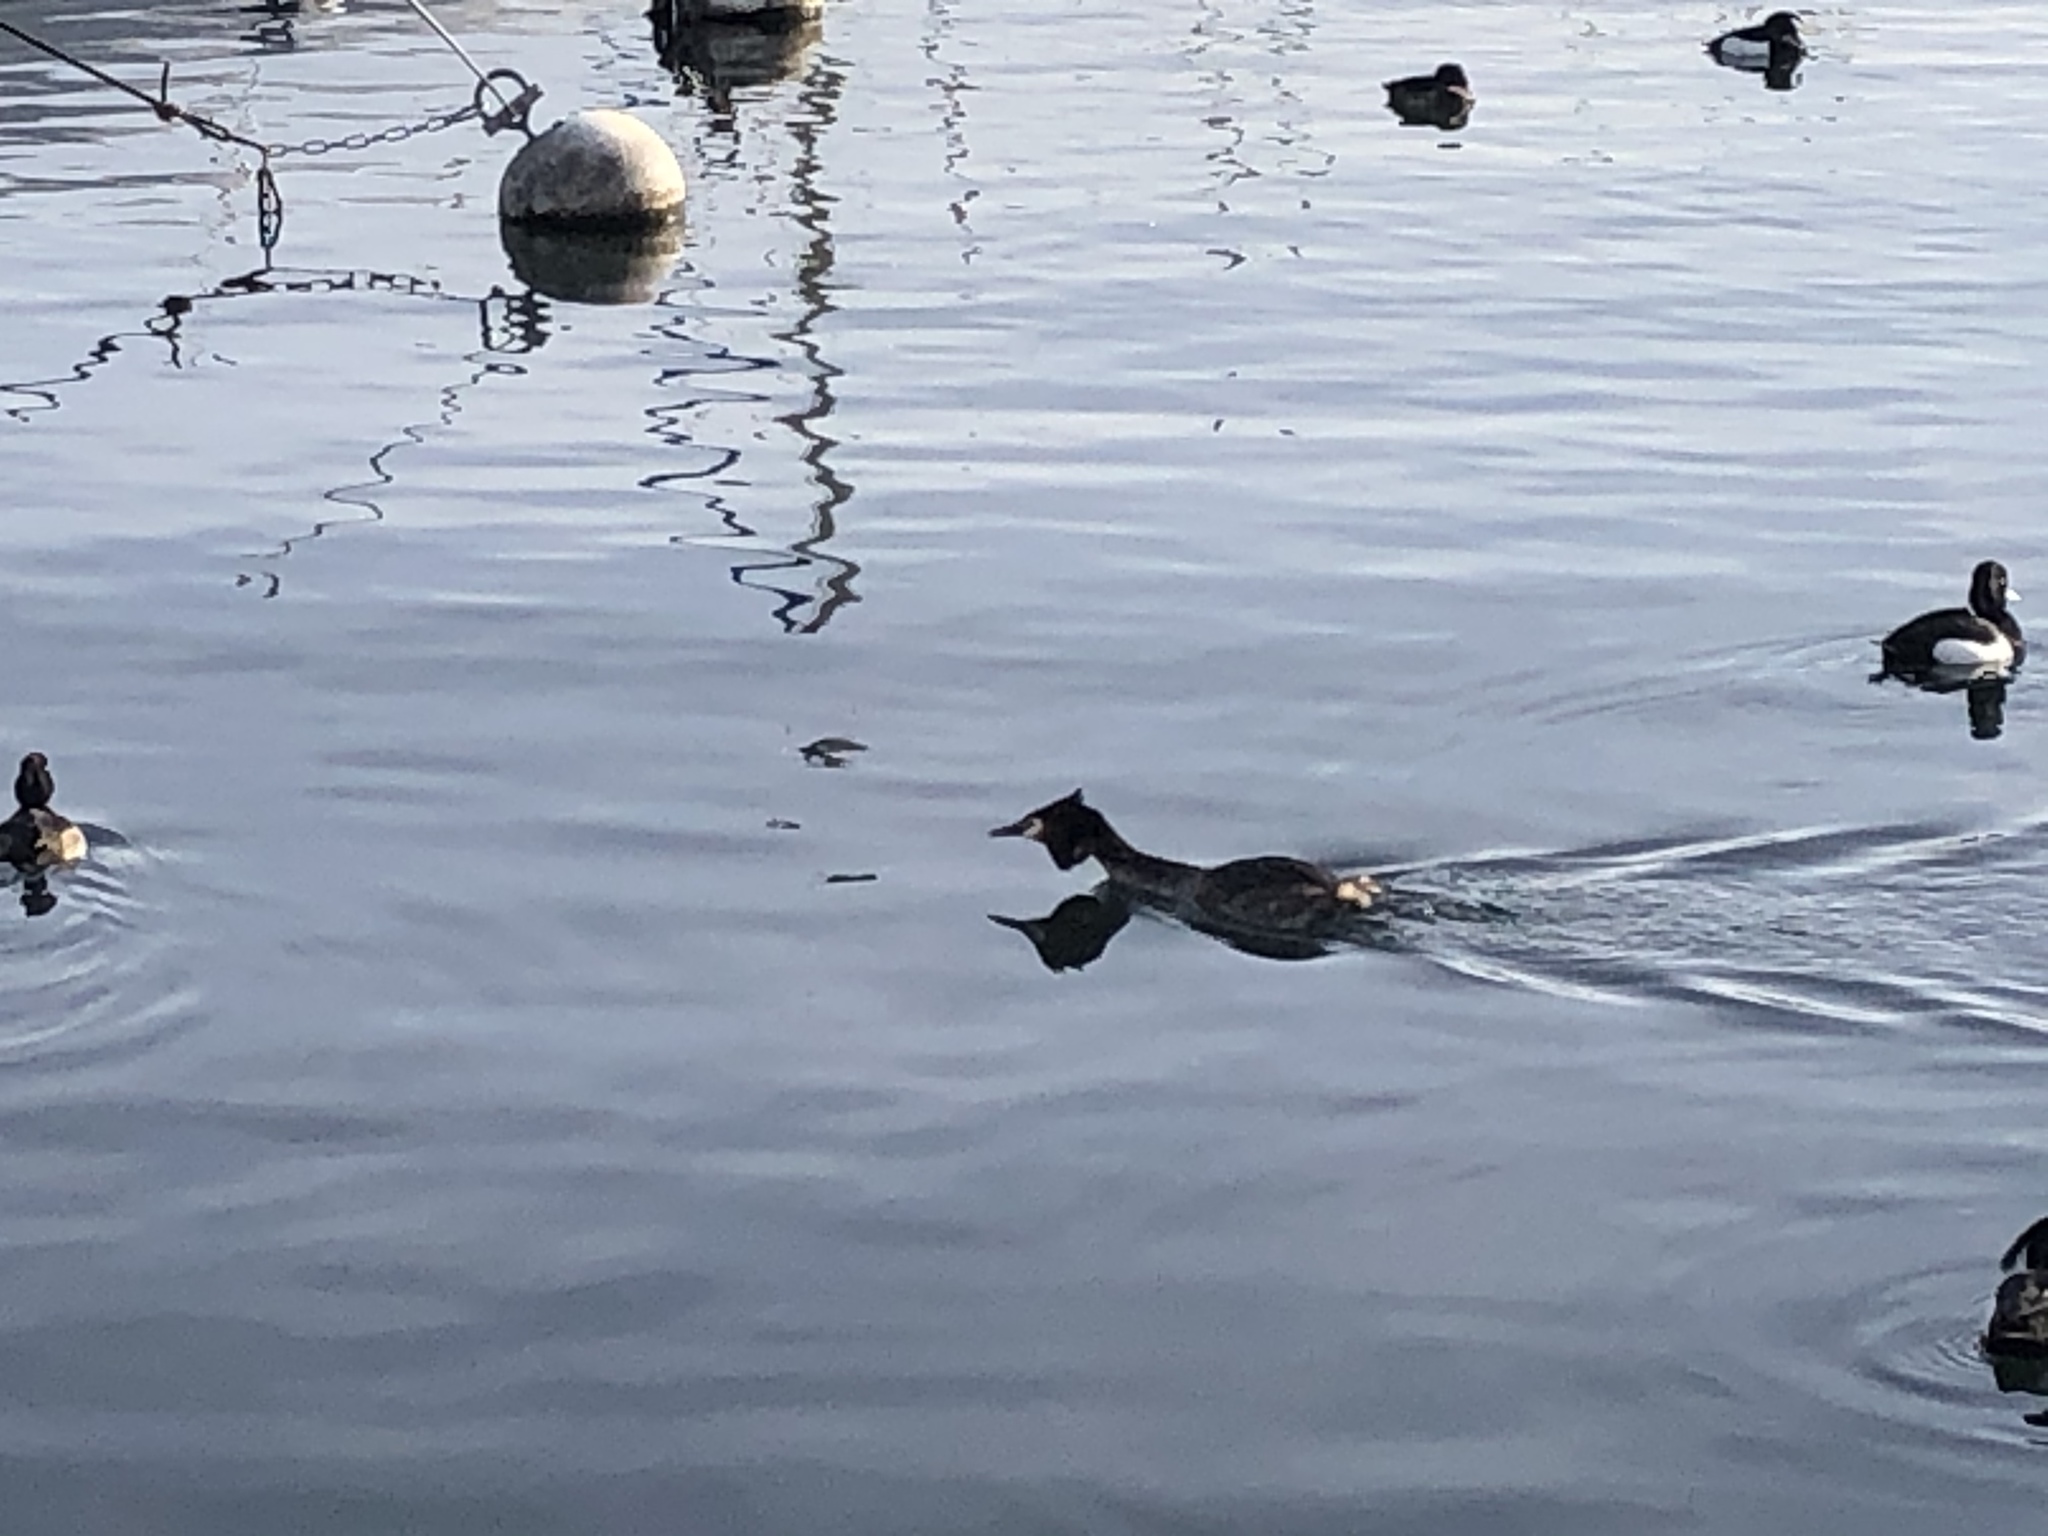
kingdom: Animalia
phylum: Chordata
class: Aves
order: Podicipediformes
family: Podicipedidae
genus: Podiceps
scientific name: Podiceps cristatus
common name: Great crested grebe
